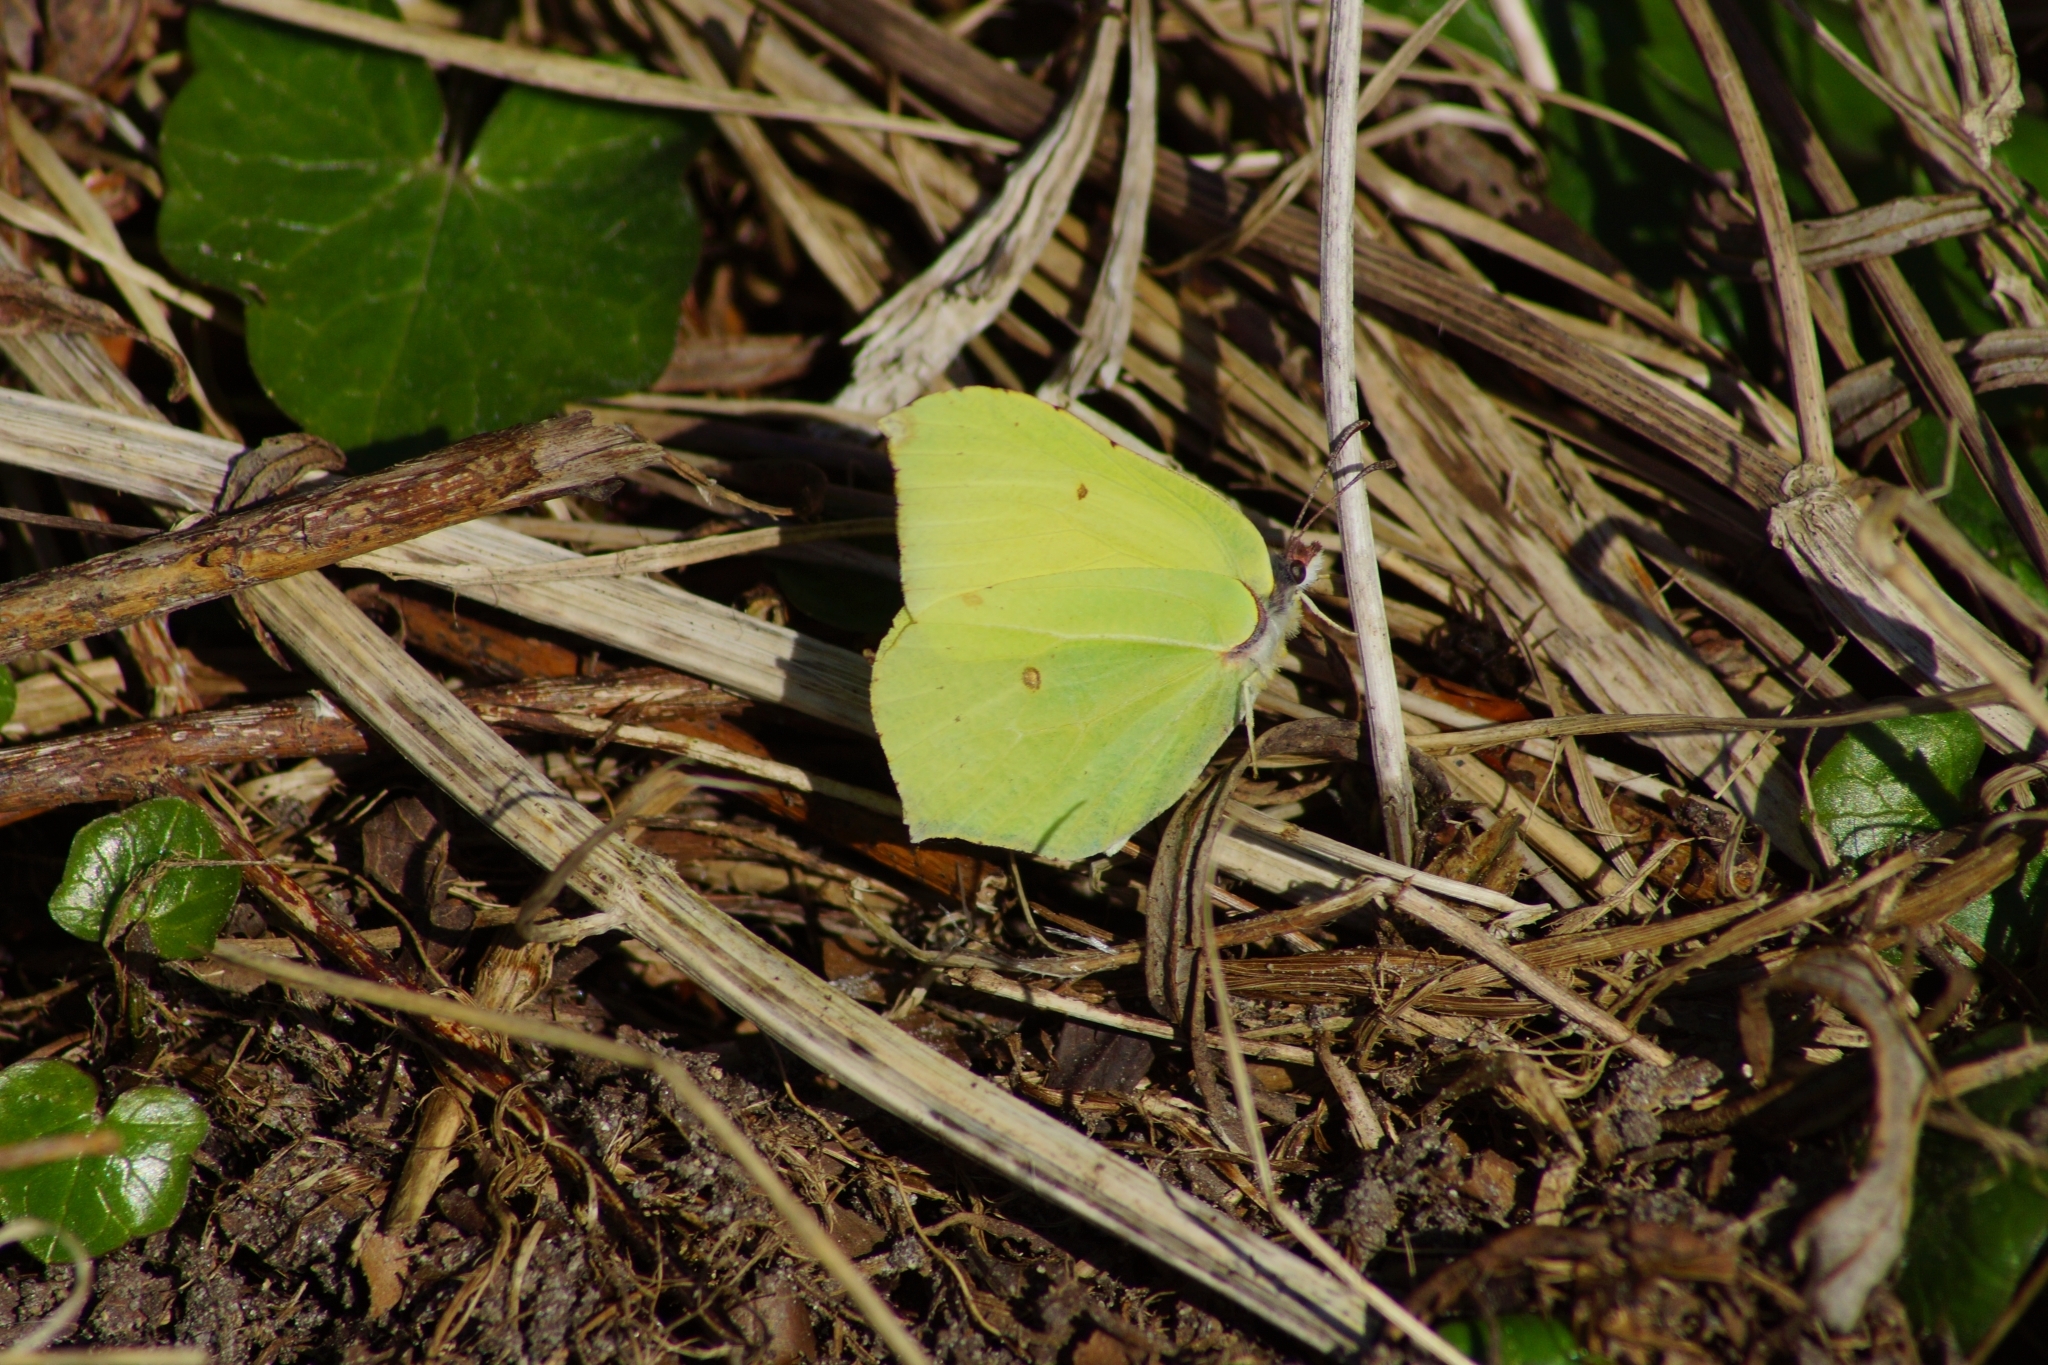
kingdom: Animalia
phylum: Arthropoda
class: Insecta
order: Lepidoptera
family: Pieridae
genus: Gonepteryx
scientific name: Gonepteryx rhamni
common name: Brimstone
